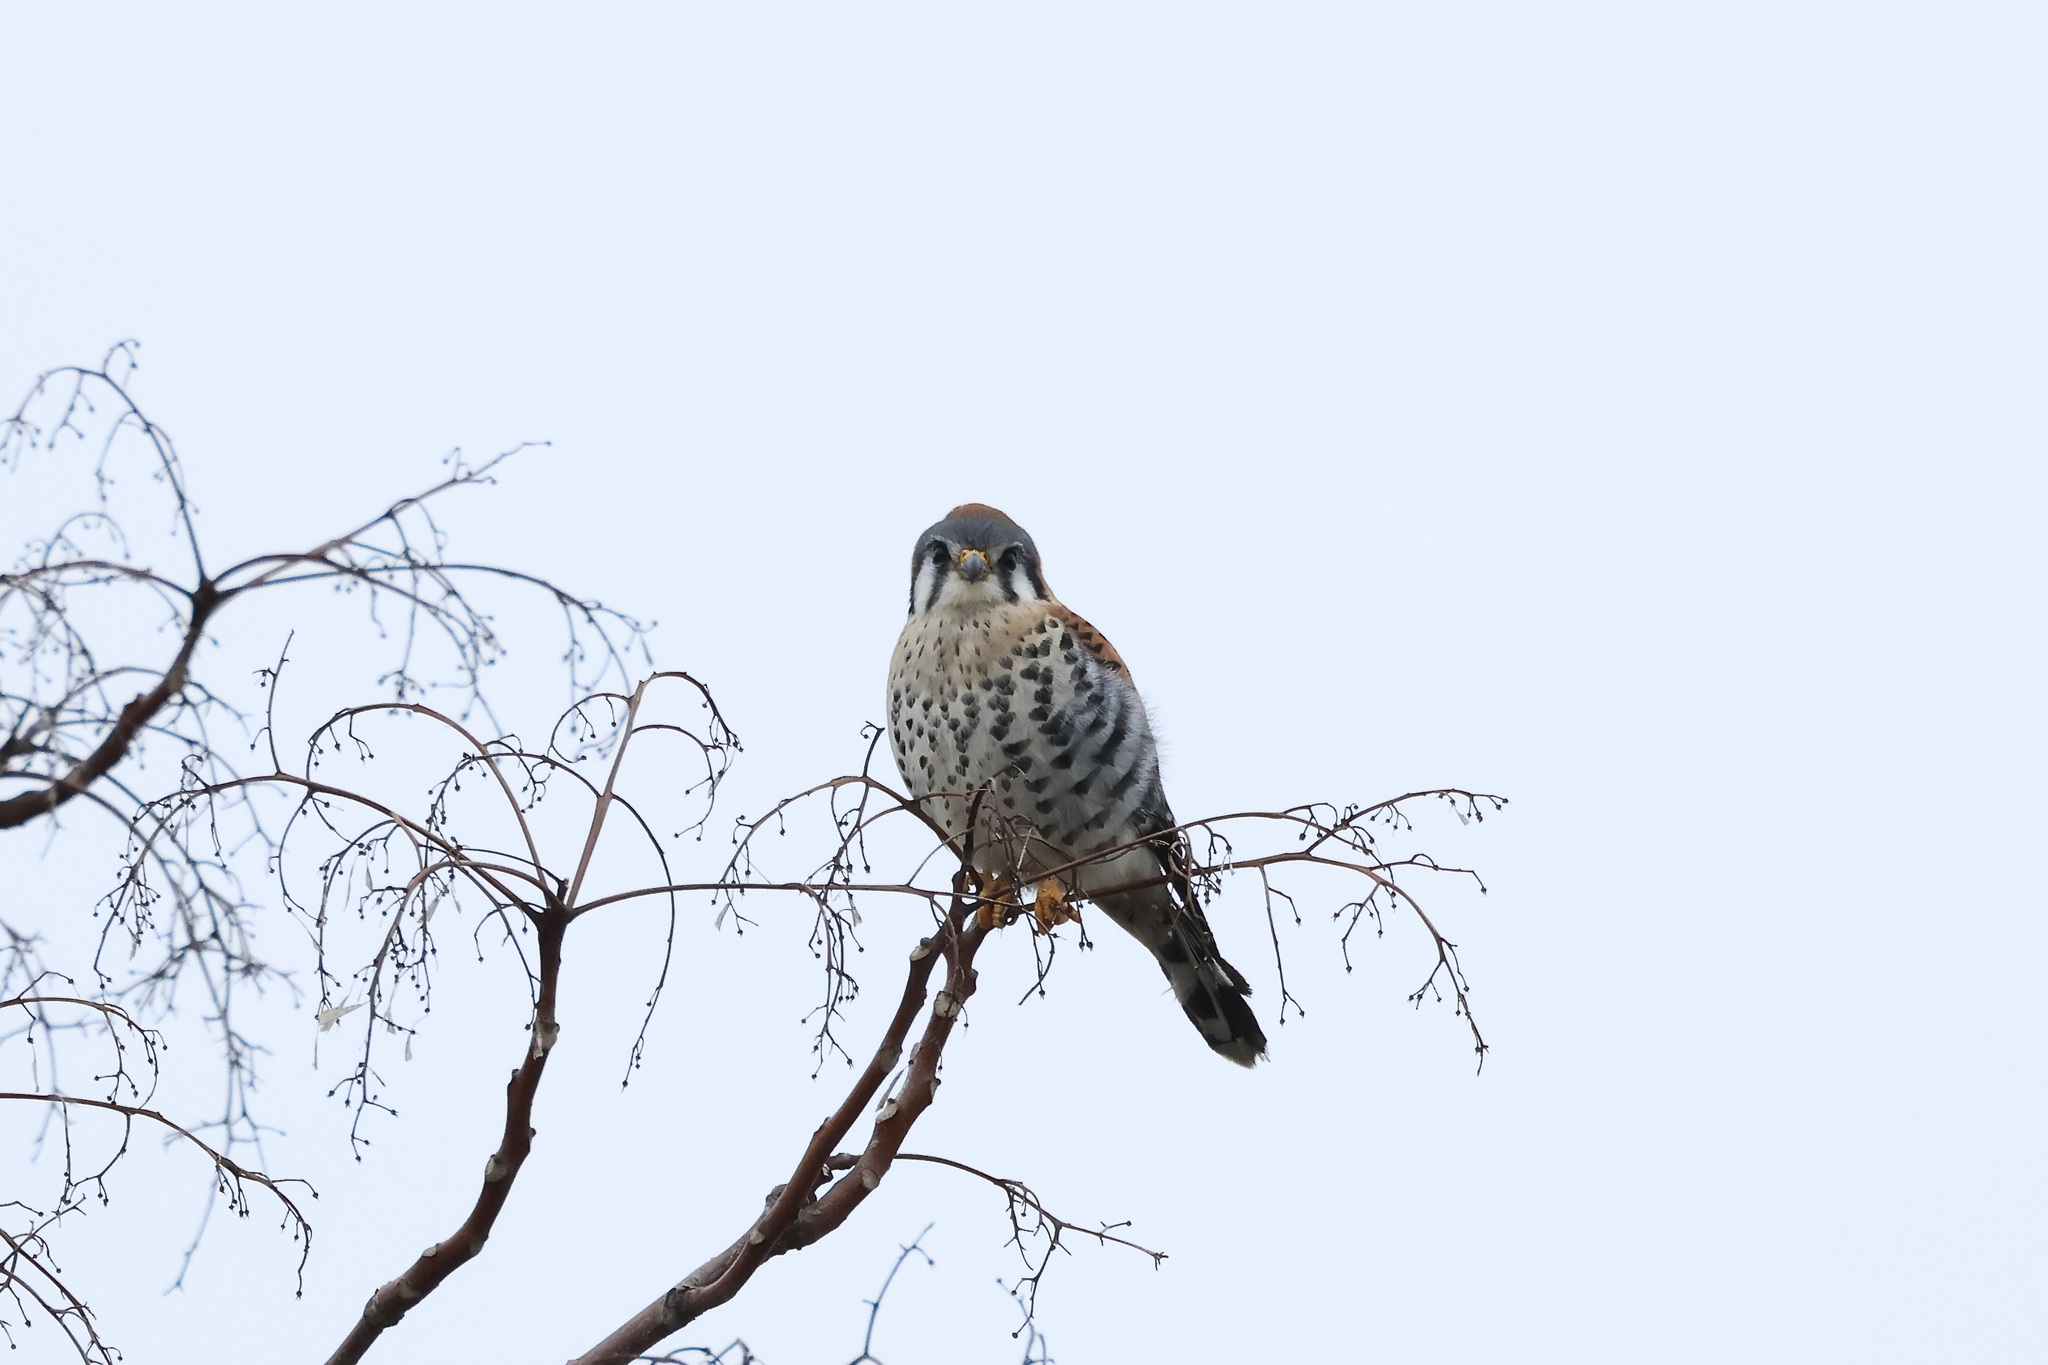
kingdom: Animalia
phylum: Chordata
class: Aves
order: Falconiformes
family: Falconidae
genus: Falco
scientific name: Falco sparverius
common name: American kestrel
